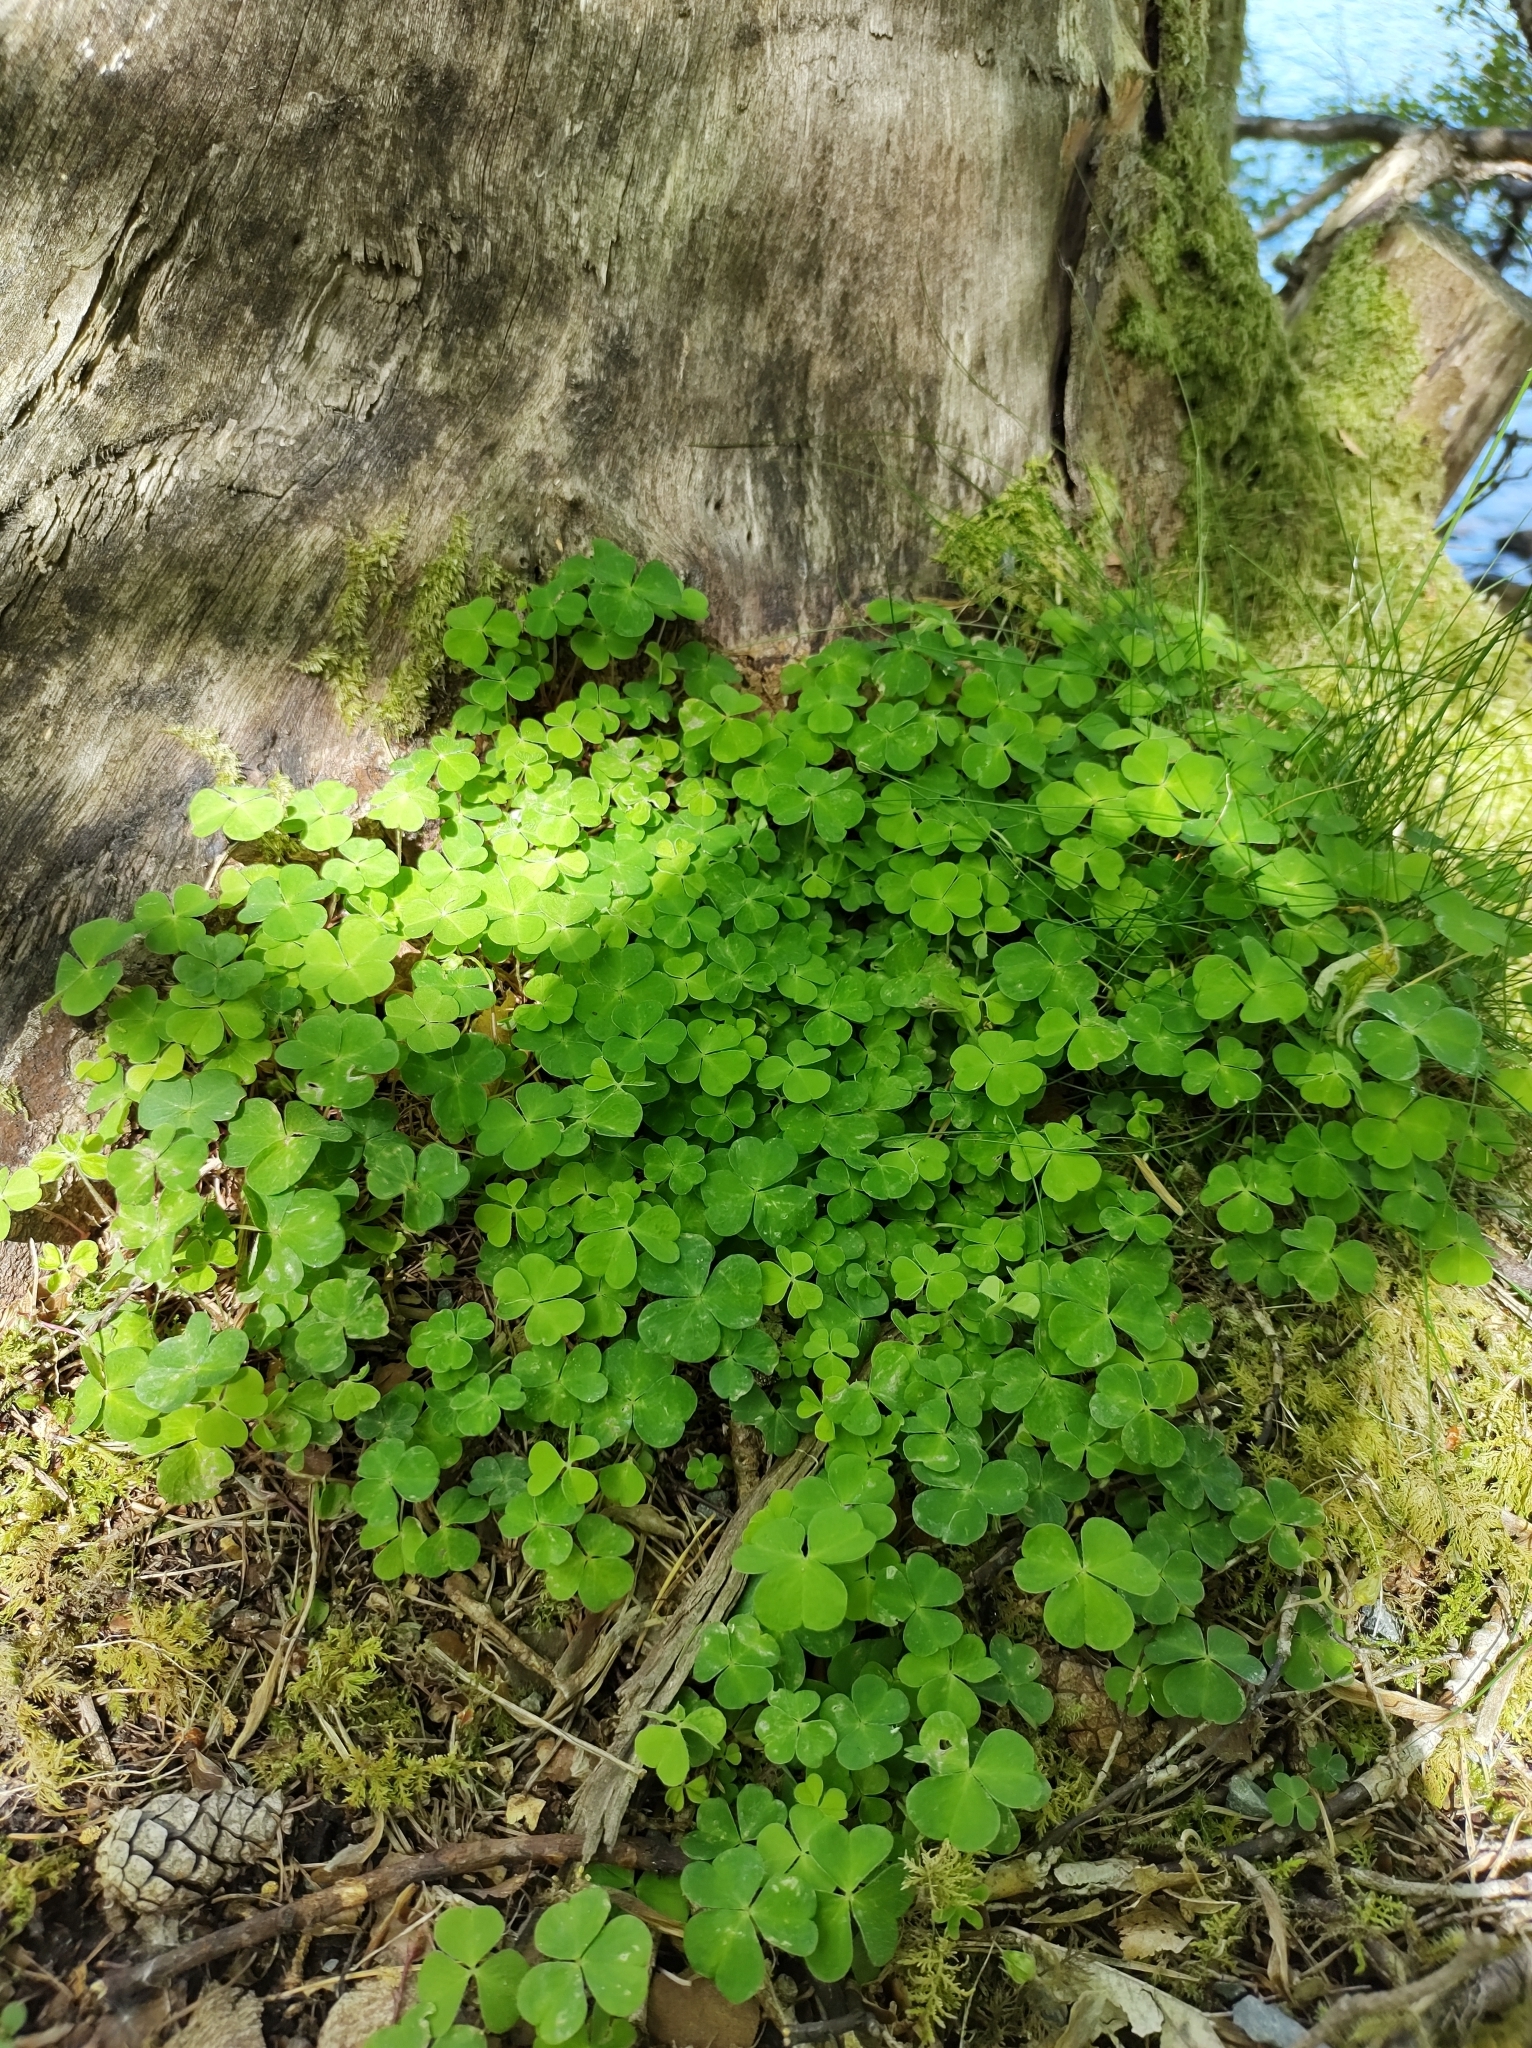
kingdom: Plantae
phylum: Tracheophyta
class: Magnoliopsida
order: Oxalidales
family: Oxalidaceae
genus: Oxalis
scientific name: Oxalis acetosella
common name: Wood-sorrel
